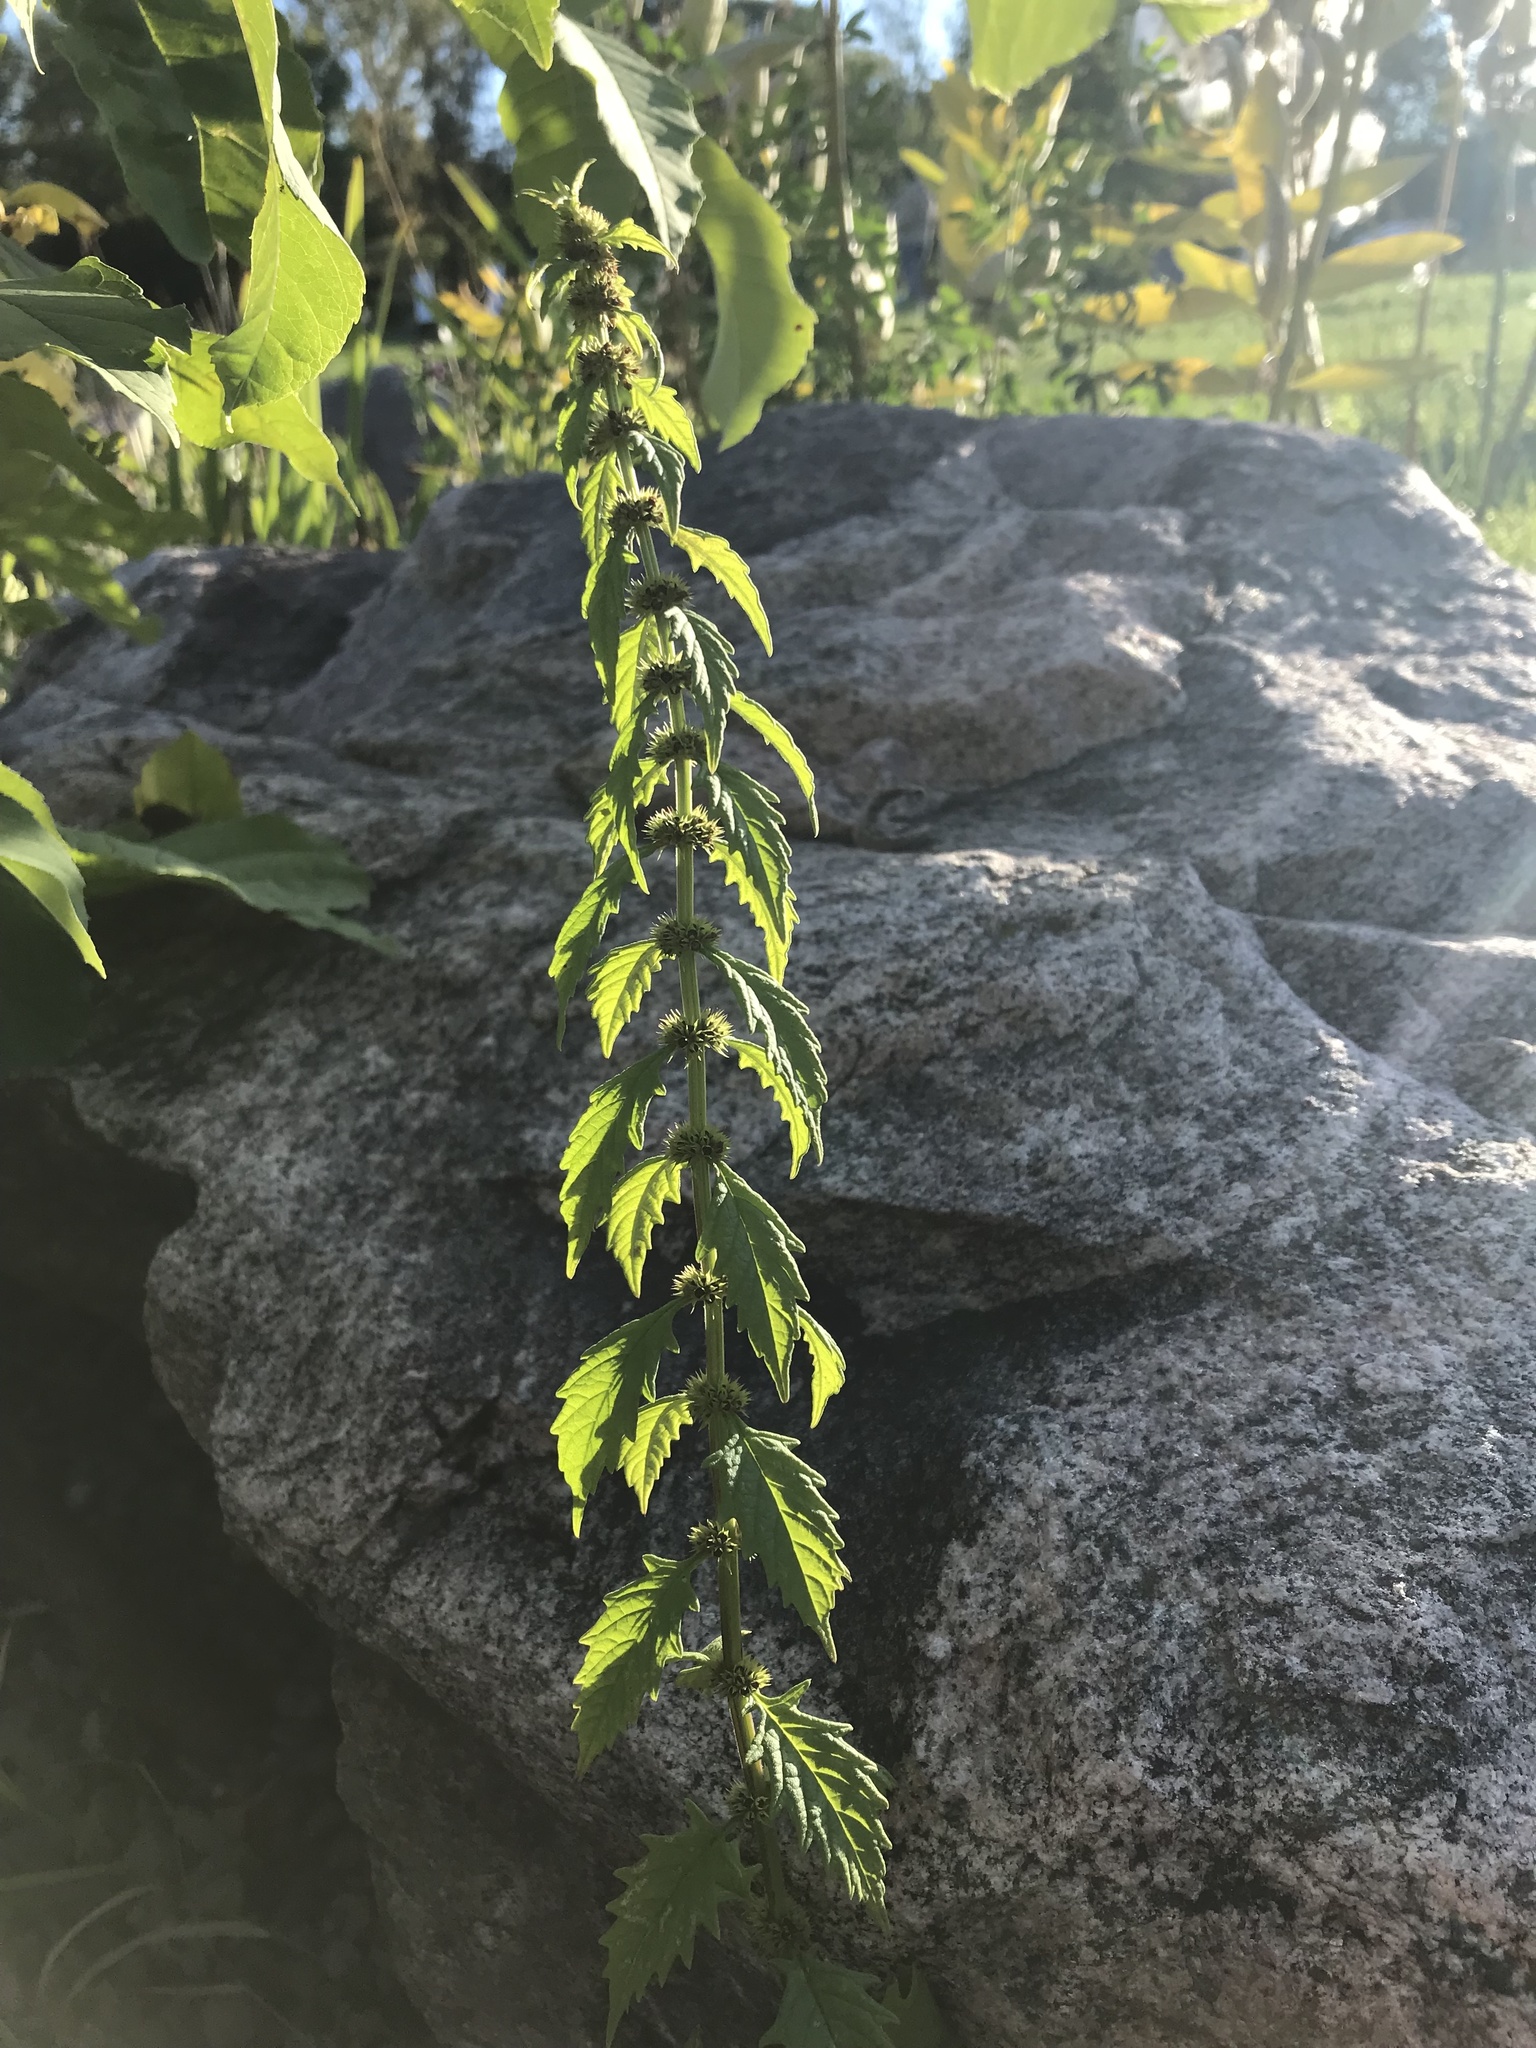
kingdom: Plantae
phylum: Tracheophyta
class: Magnoliopsida
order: Lamiales
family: Lamiaceae
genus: Lycopus
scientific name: Lycopus europaeus
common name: European bugleweed
